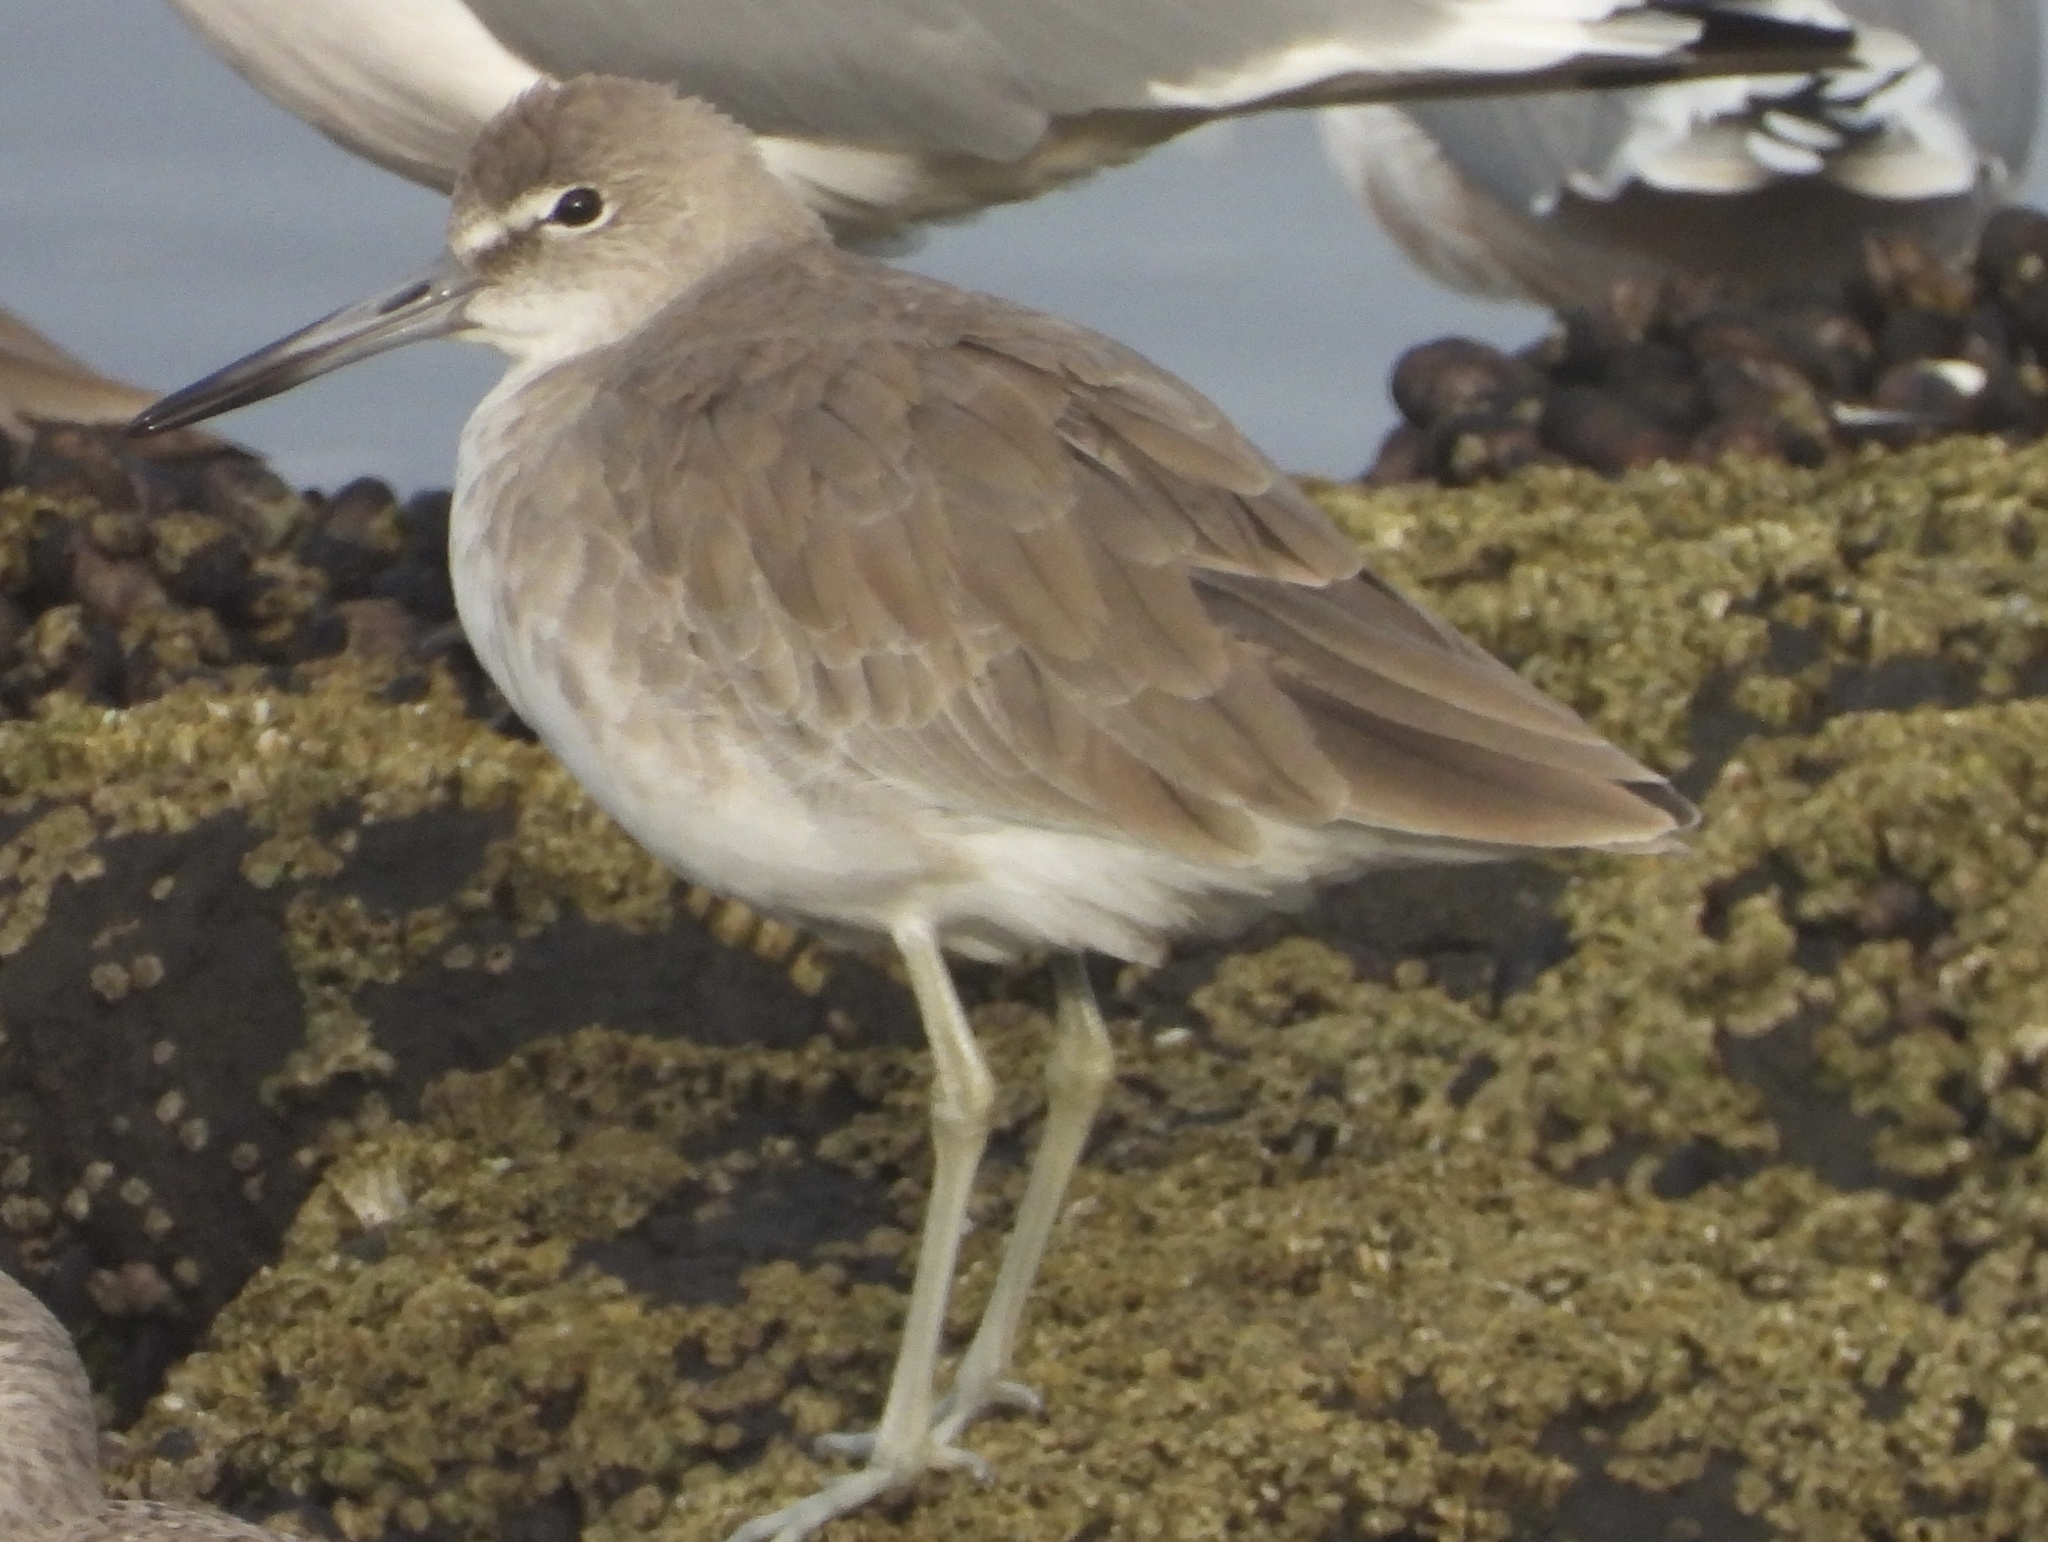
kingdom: Animalia
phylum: Chordata
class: Aves
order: Charadriiformes
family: Scolopacidae
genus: Tringa
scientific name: Tringa semipalmata
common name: Willet
